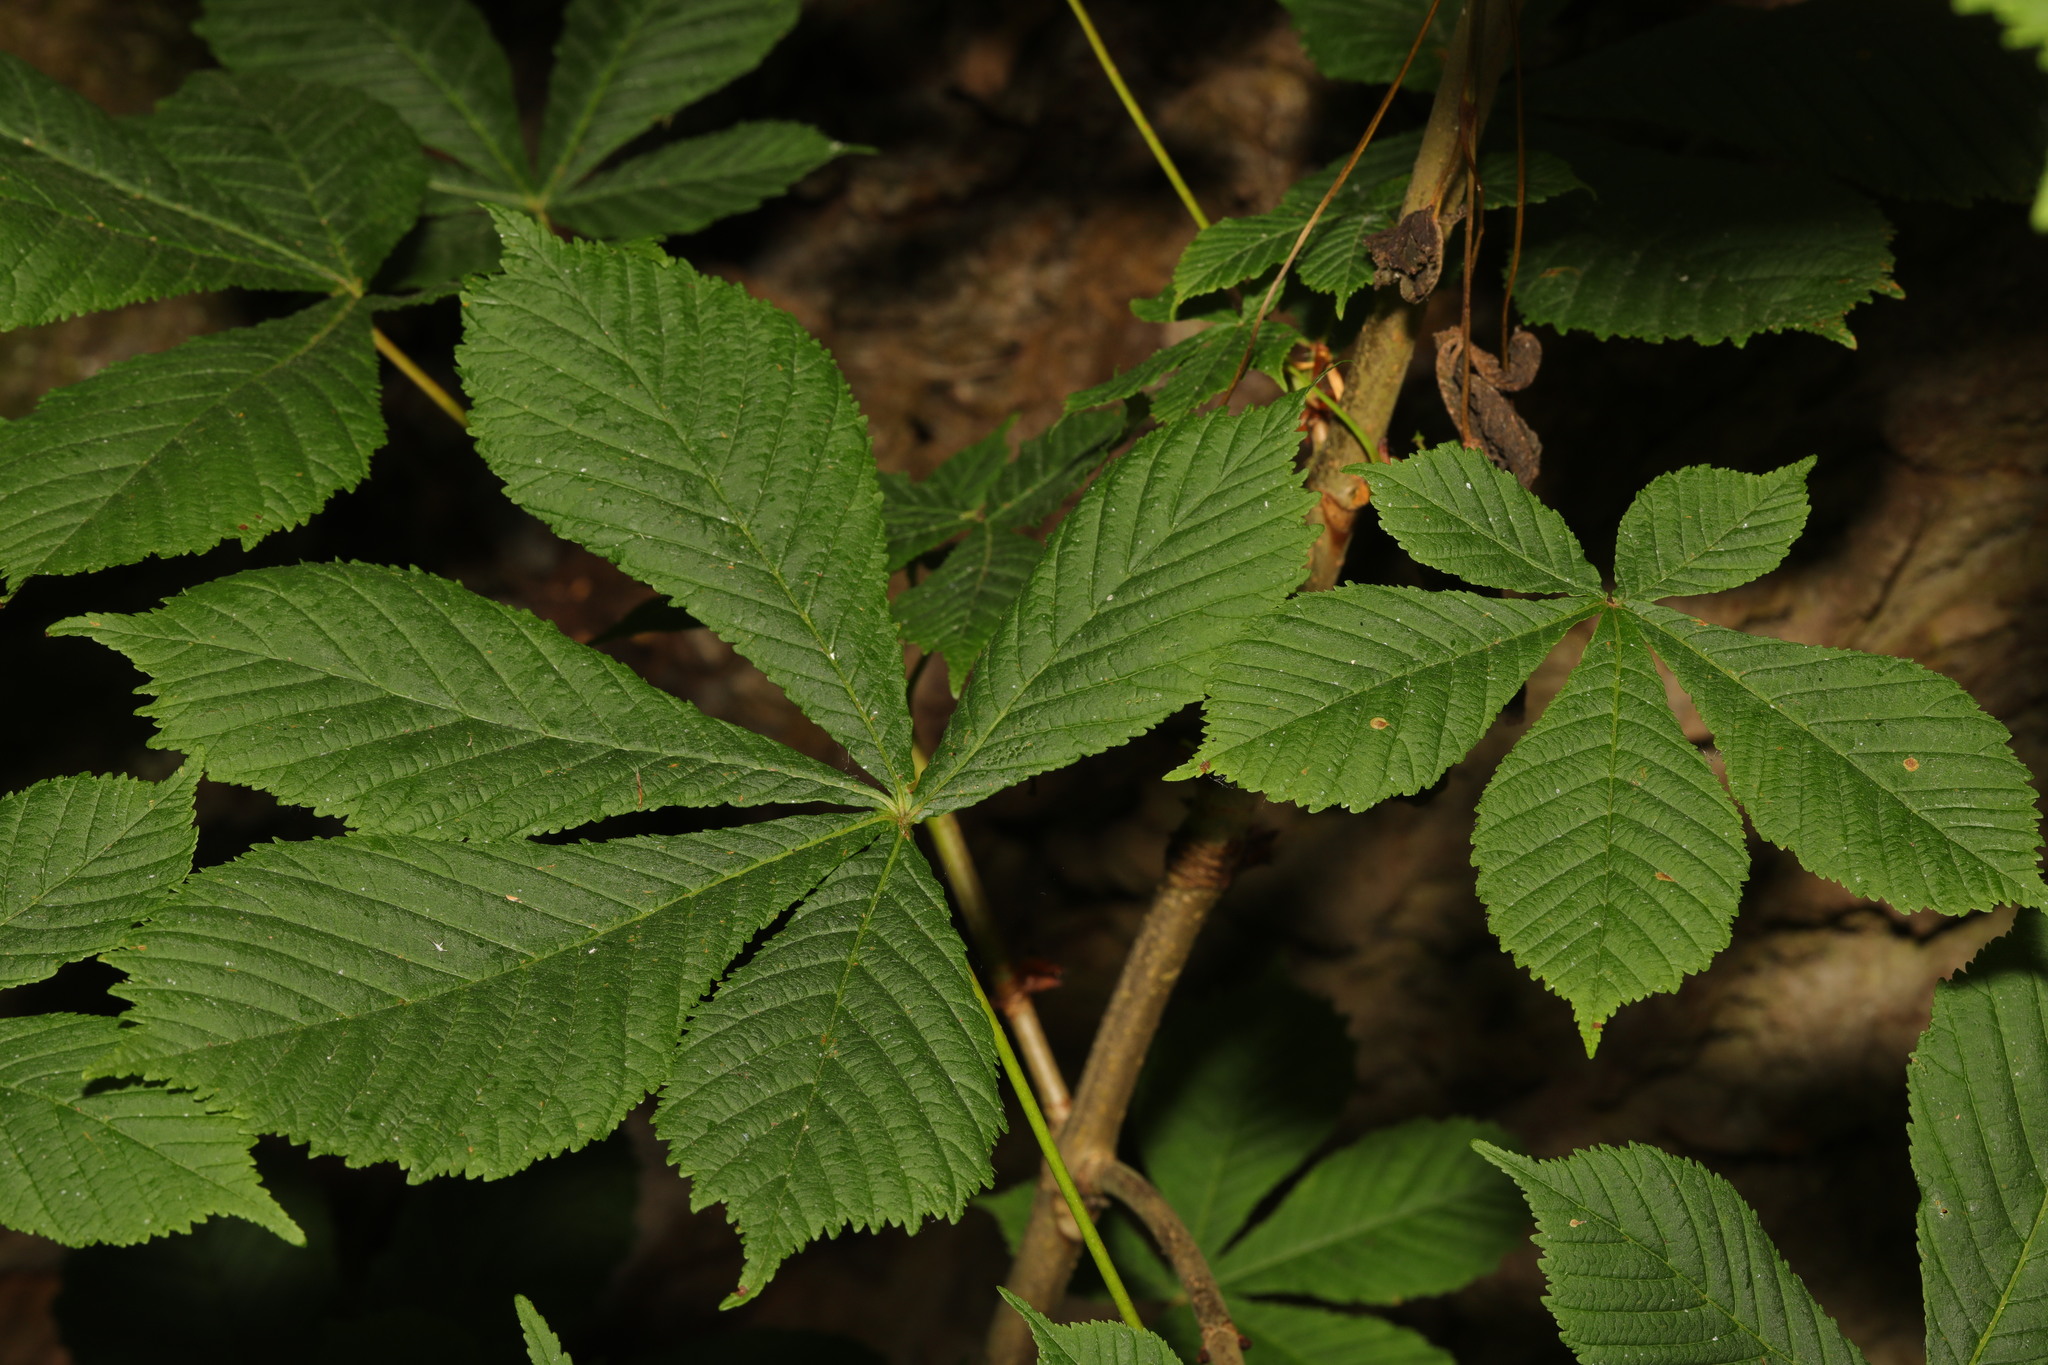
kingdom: Plantae
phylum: Tracheophyta
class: Magnoliopsida
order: Sapindales
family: Sapindaceae
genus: Aesculus
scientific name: Aesculus hippocastanum
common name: Horse-chestnut
